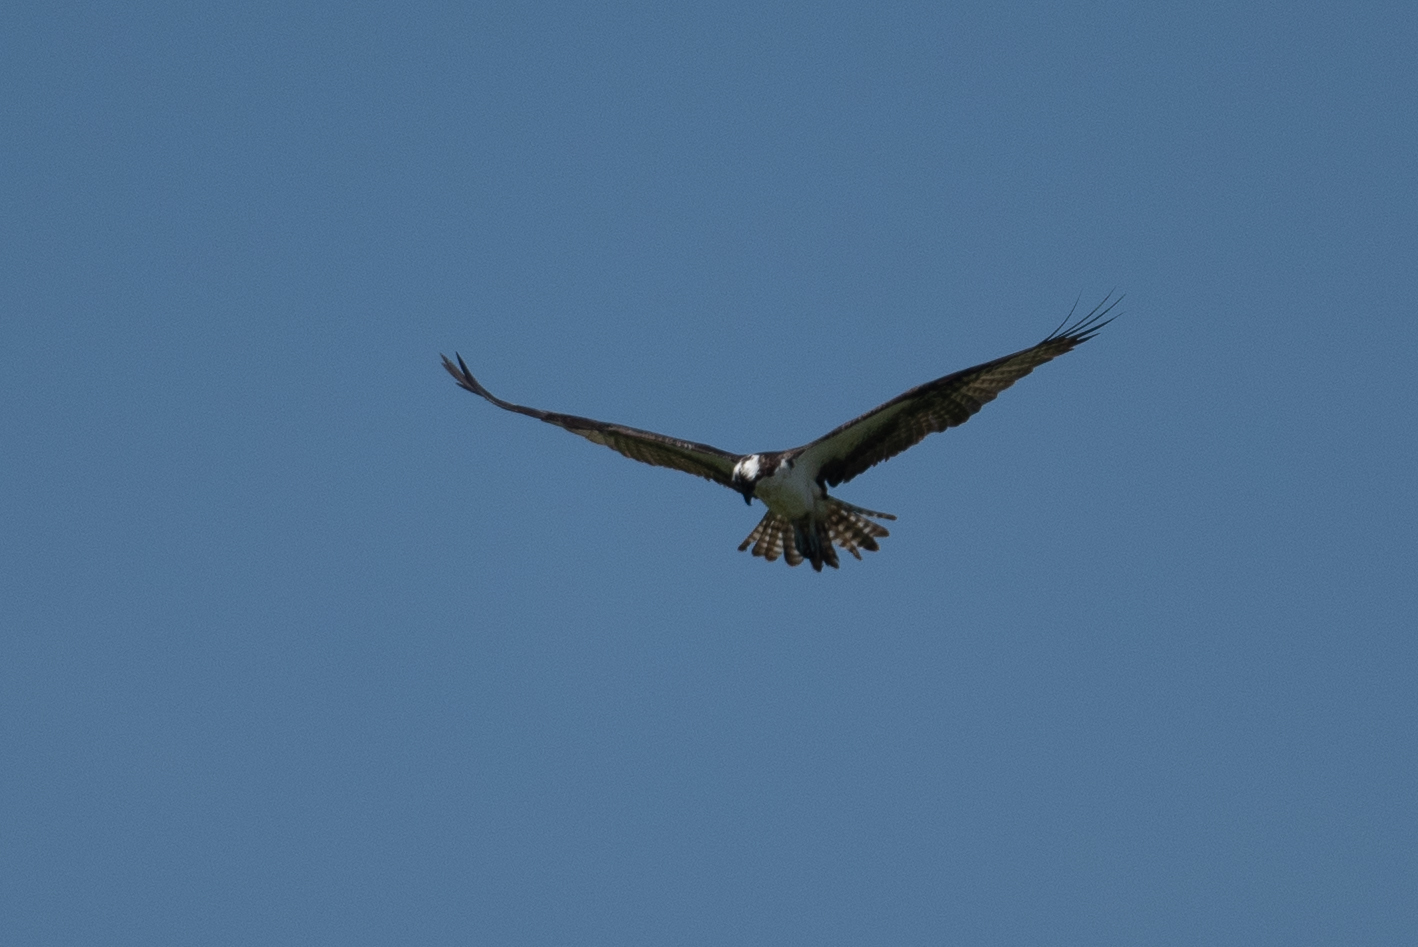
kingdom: Animalia
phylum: Chordata
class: Aves
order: Accipitriformes
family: Pandionidae
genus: Pandion
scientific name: Pandion haliaetus
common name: Osprey
